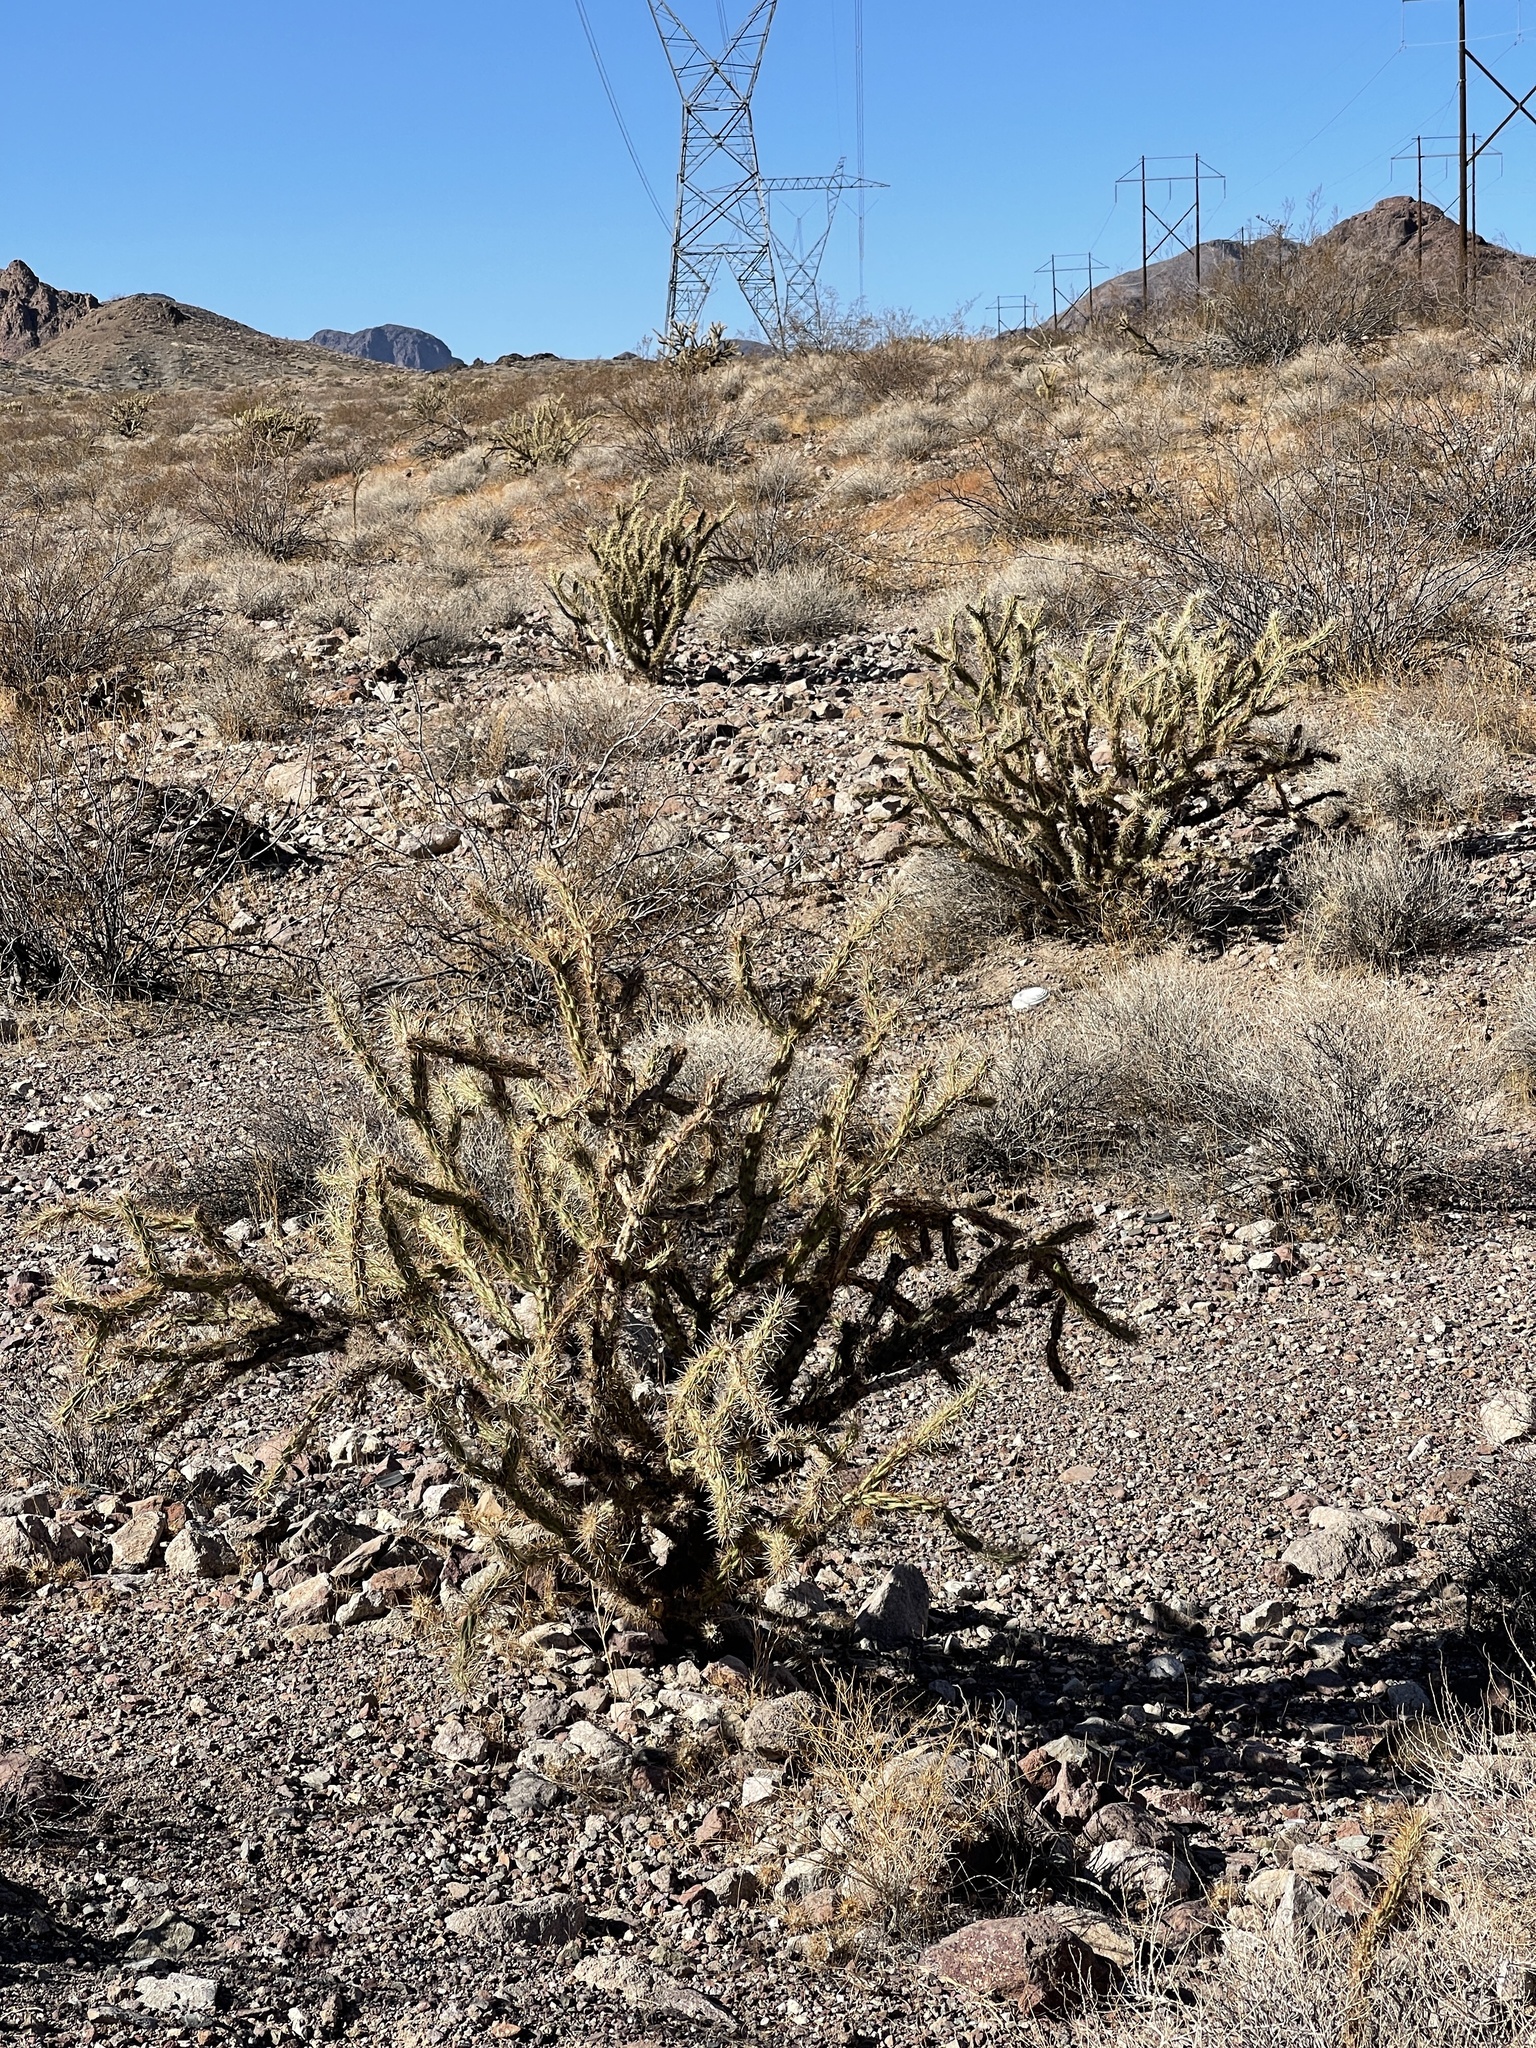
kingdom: Plantae
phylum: Tracheophyta
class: Magnoliopsida
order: Caryophyllales
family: Cactaceae
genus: Cylindropuntia
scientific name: Cylindropuntia acanthocarpa
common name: Buckhorn cholla
